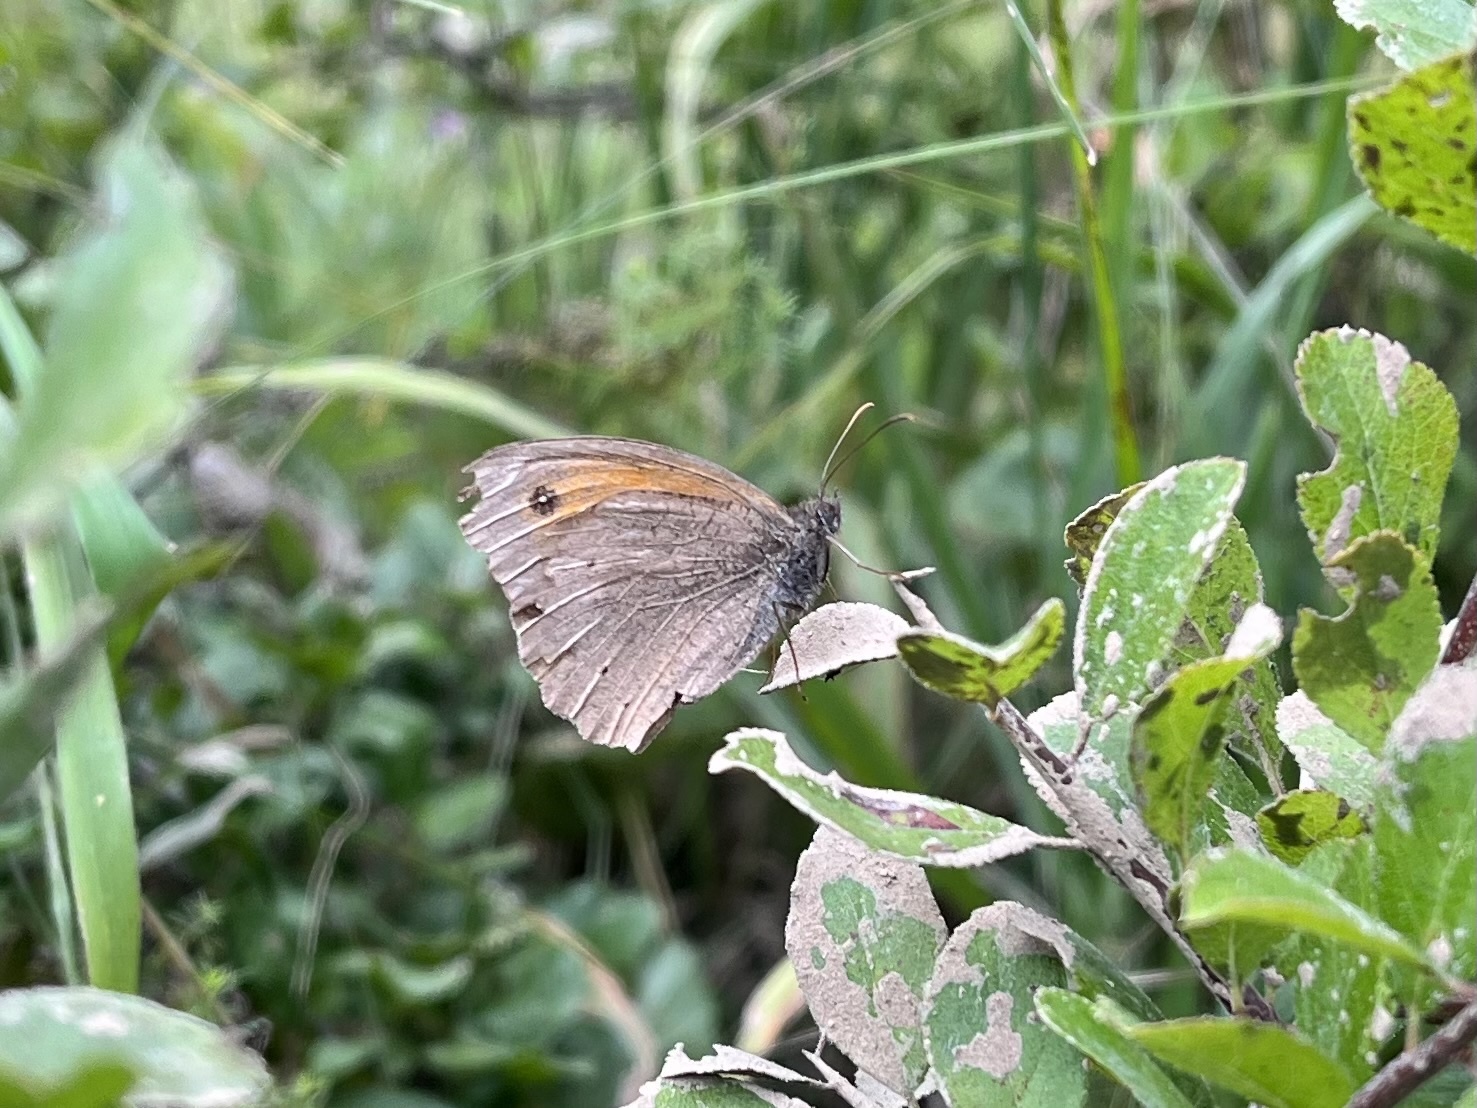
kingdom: Animalia
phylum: Arthropoda
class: Insecta
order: Lepidoptera
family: Nymphalidae
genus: Maniola
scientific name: Maniola jurtina
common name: Meadow brown
